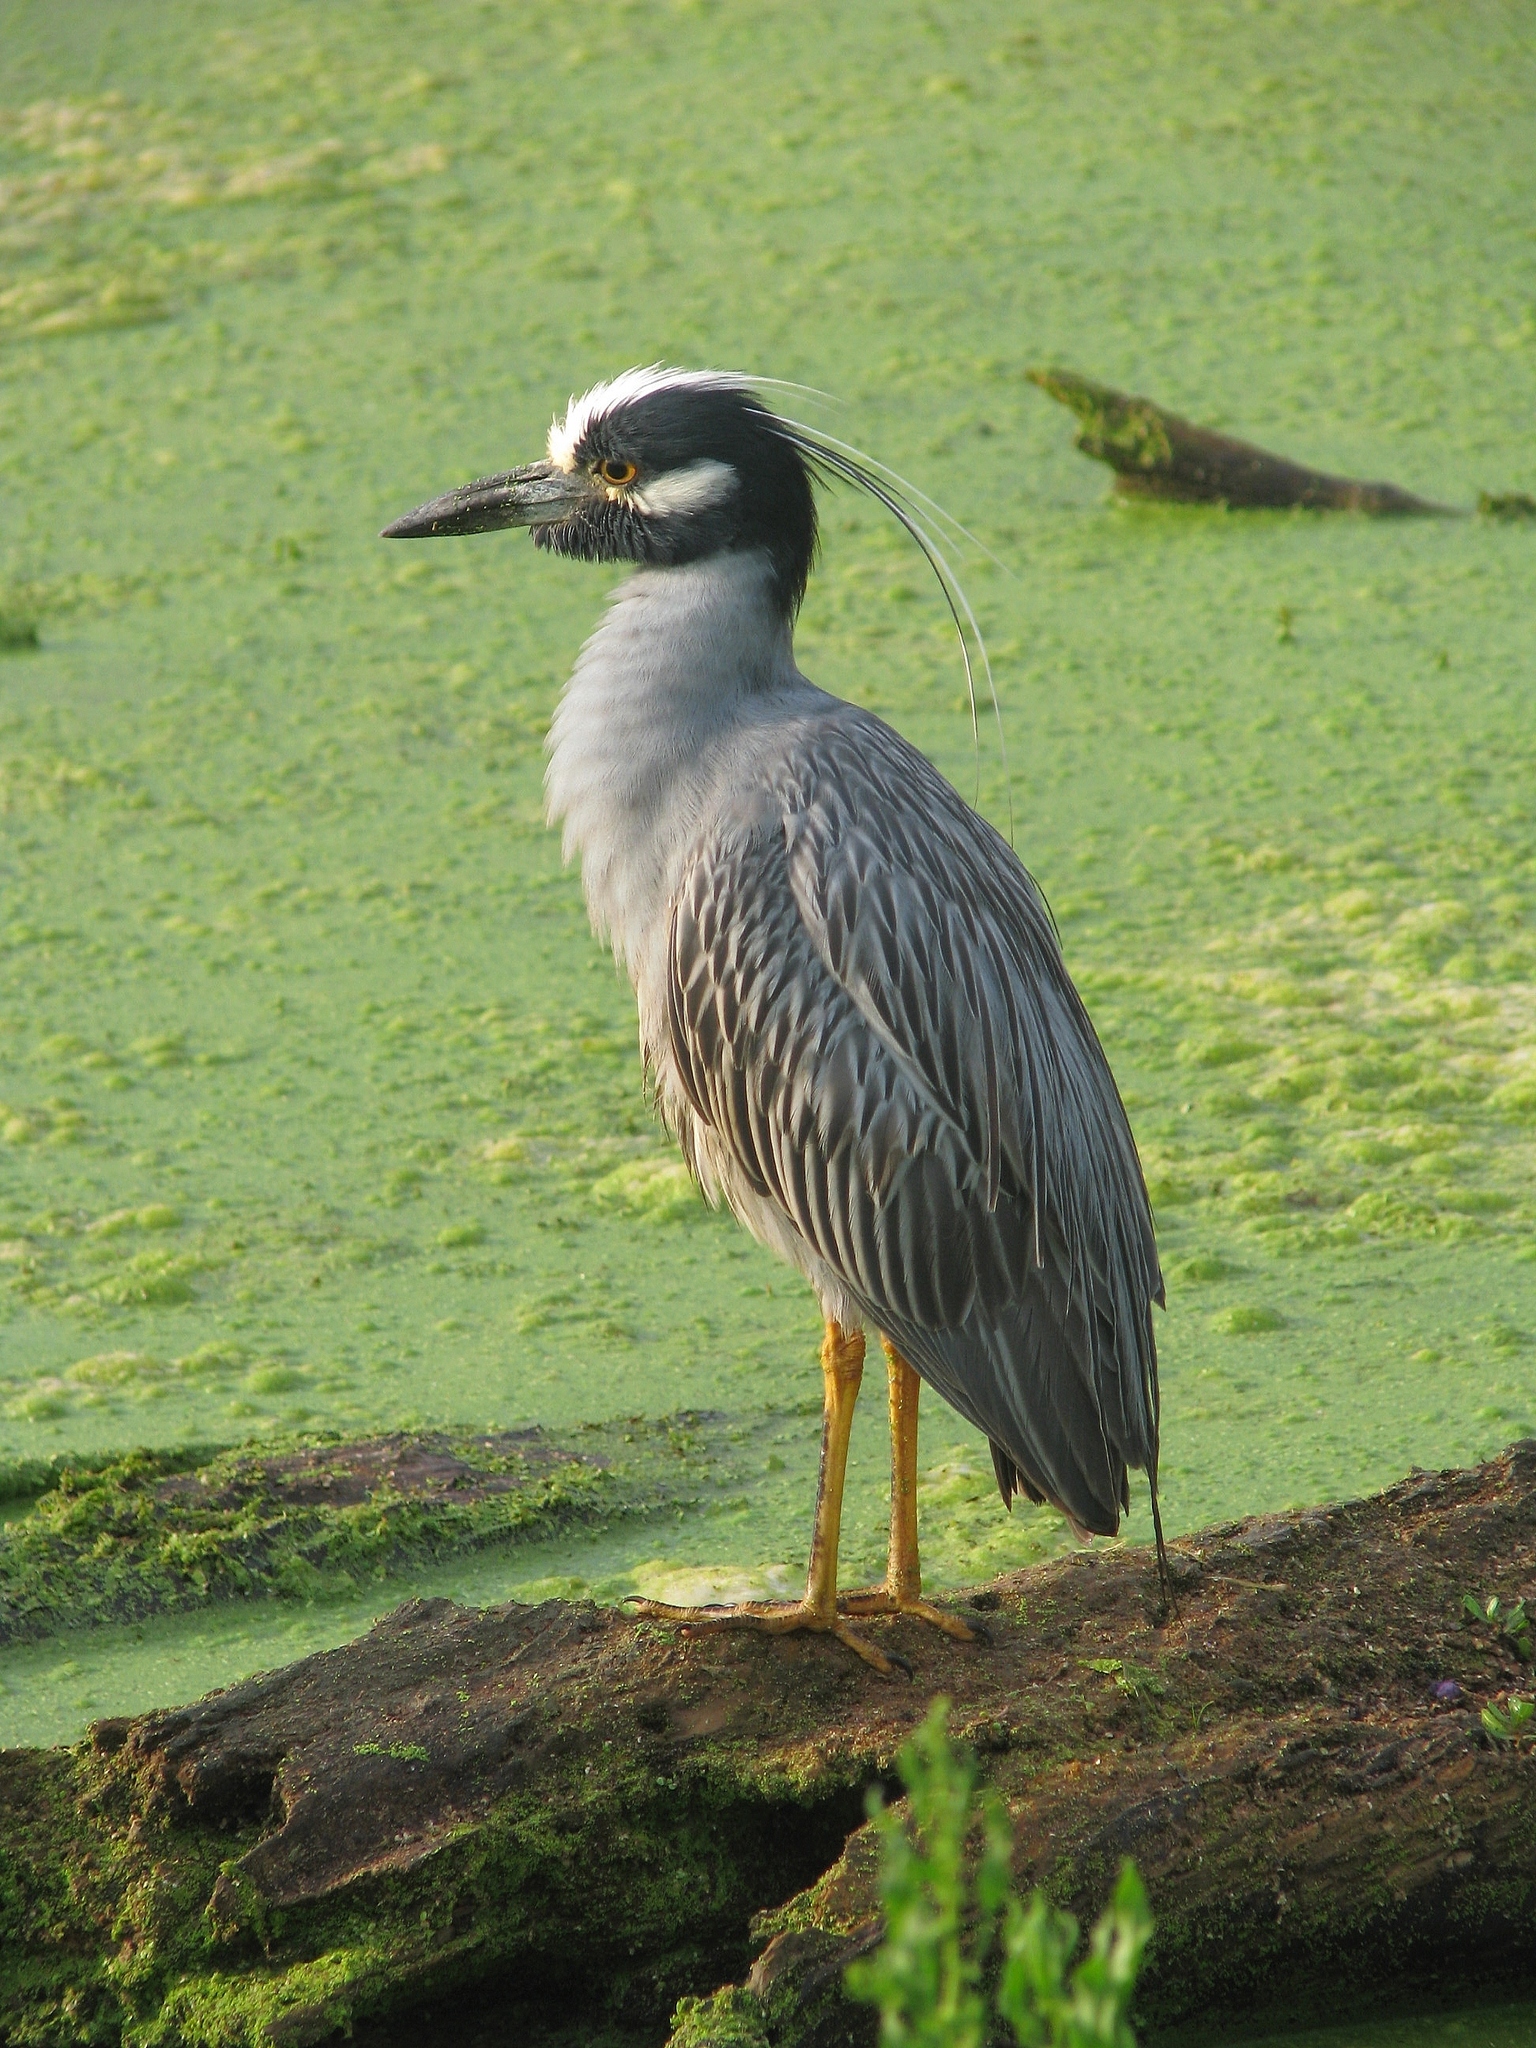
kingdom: Animalia
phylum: Chordata
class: Aves
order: Pelecaniformes
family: Ardeidae
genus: Nyctanassa
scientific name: Nyctanassa violacea
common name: Yellow-crowned night heron
